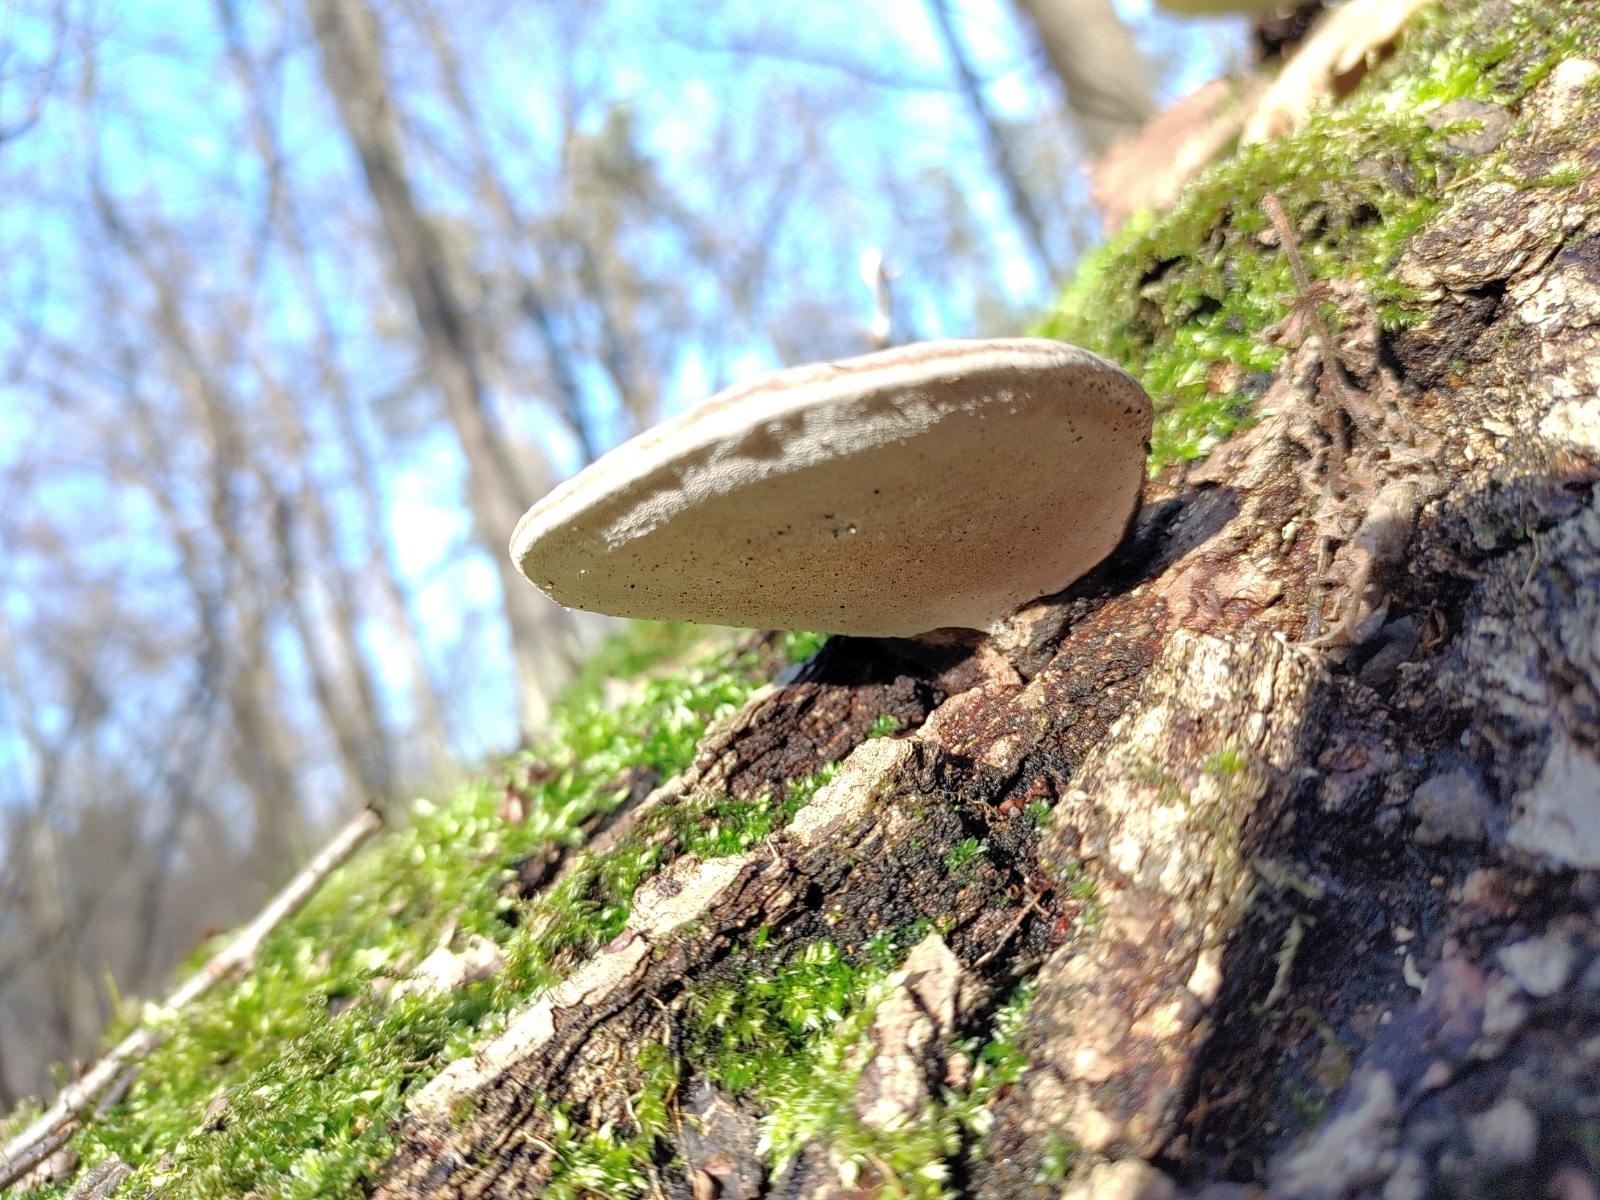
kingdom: Fungi
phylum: Basidiomycota
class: Agaricomycetes
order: Polyporales
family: Polyporaceae
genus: Fomes
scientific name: Fomes fomentarius
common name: Hoof fungus
